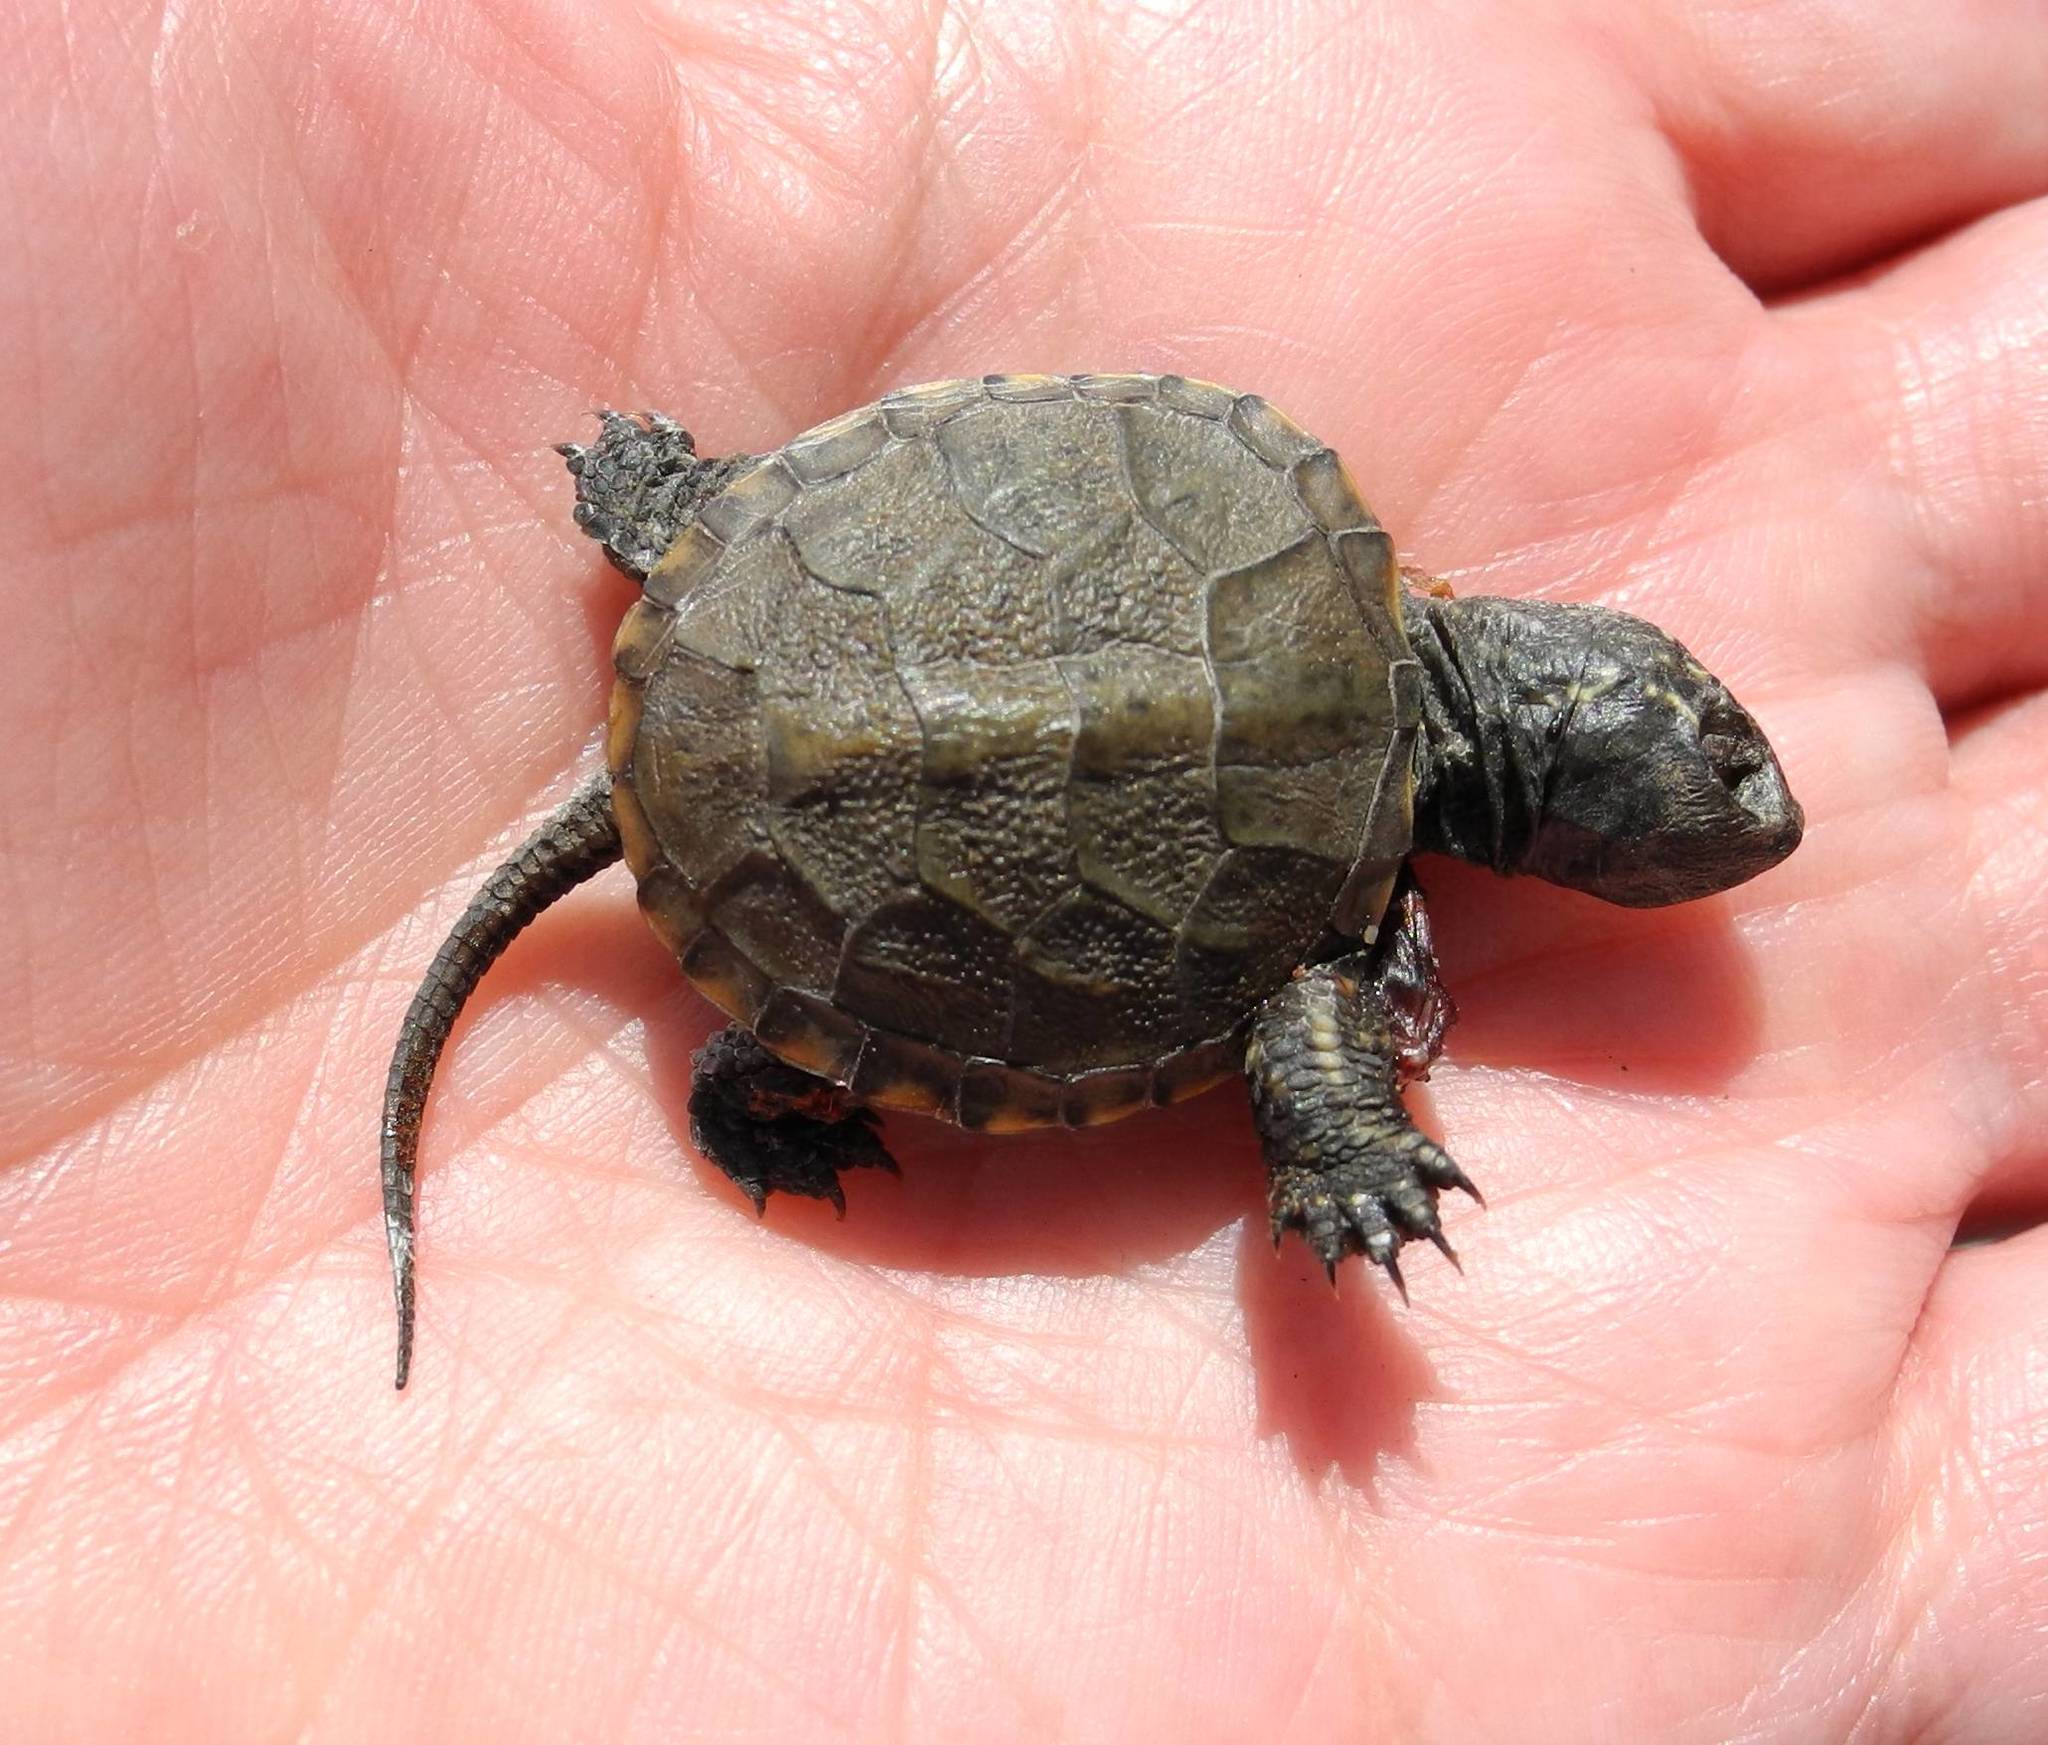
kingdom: Animalia
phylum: Chordata
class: Testudines
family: Emydidae
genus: Emys
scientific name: Emys orbicularis
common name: European pond turtle
